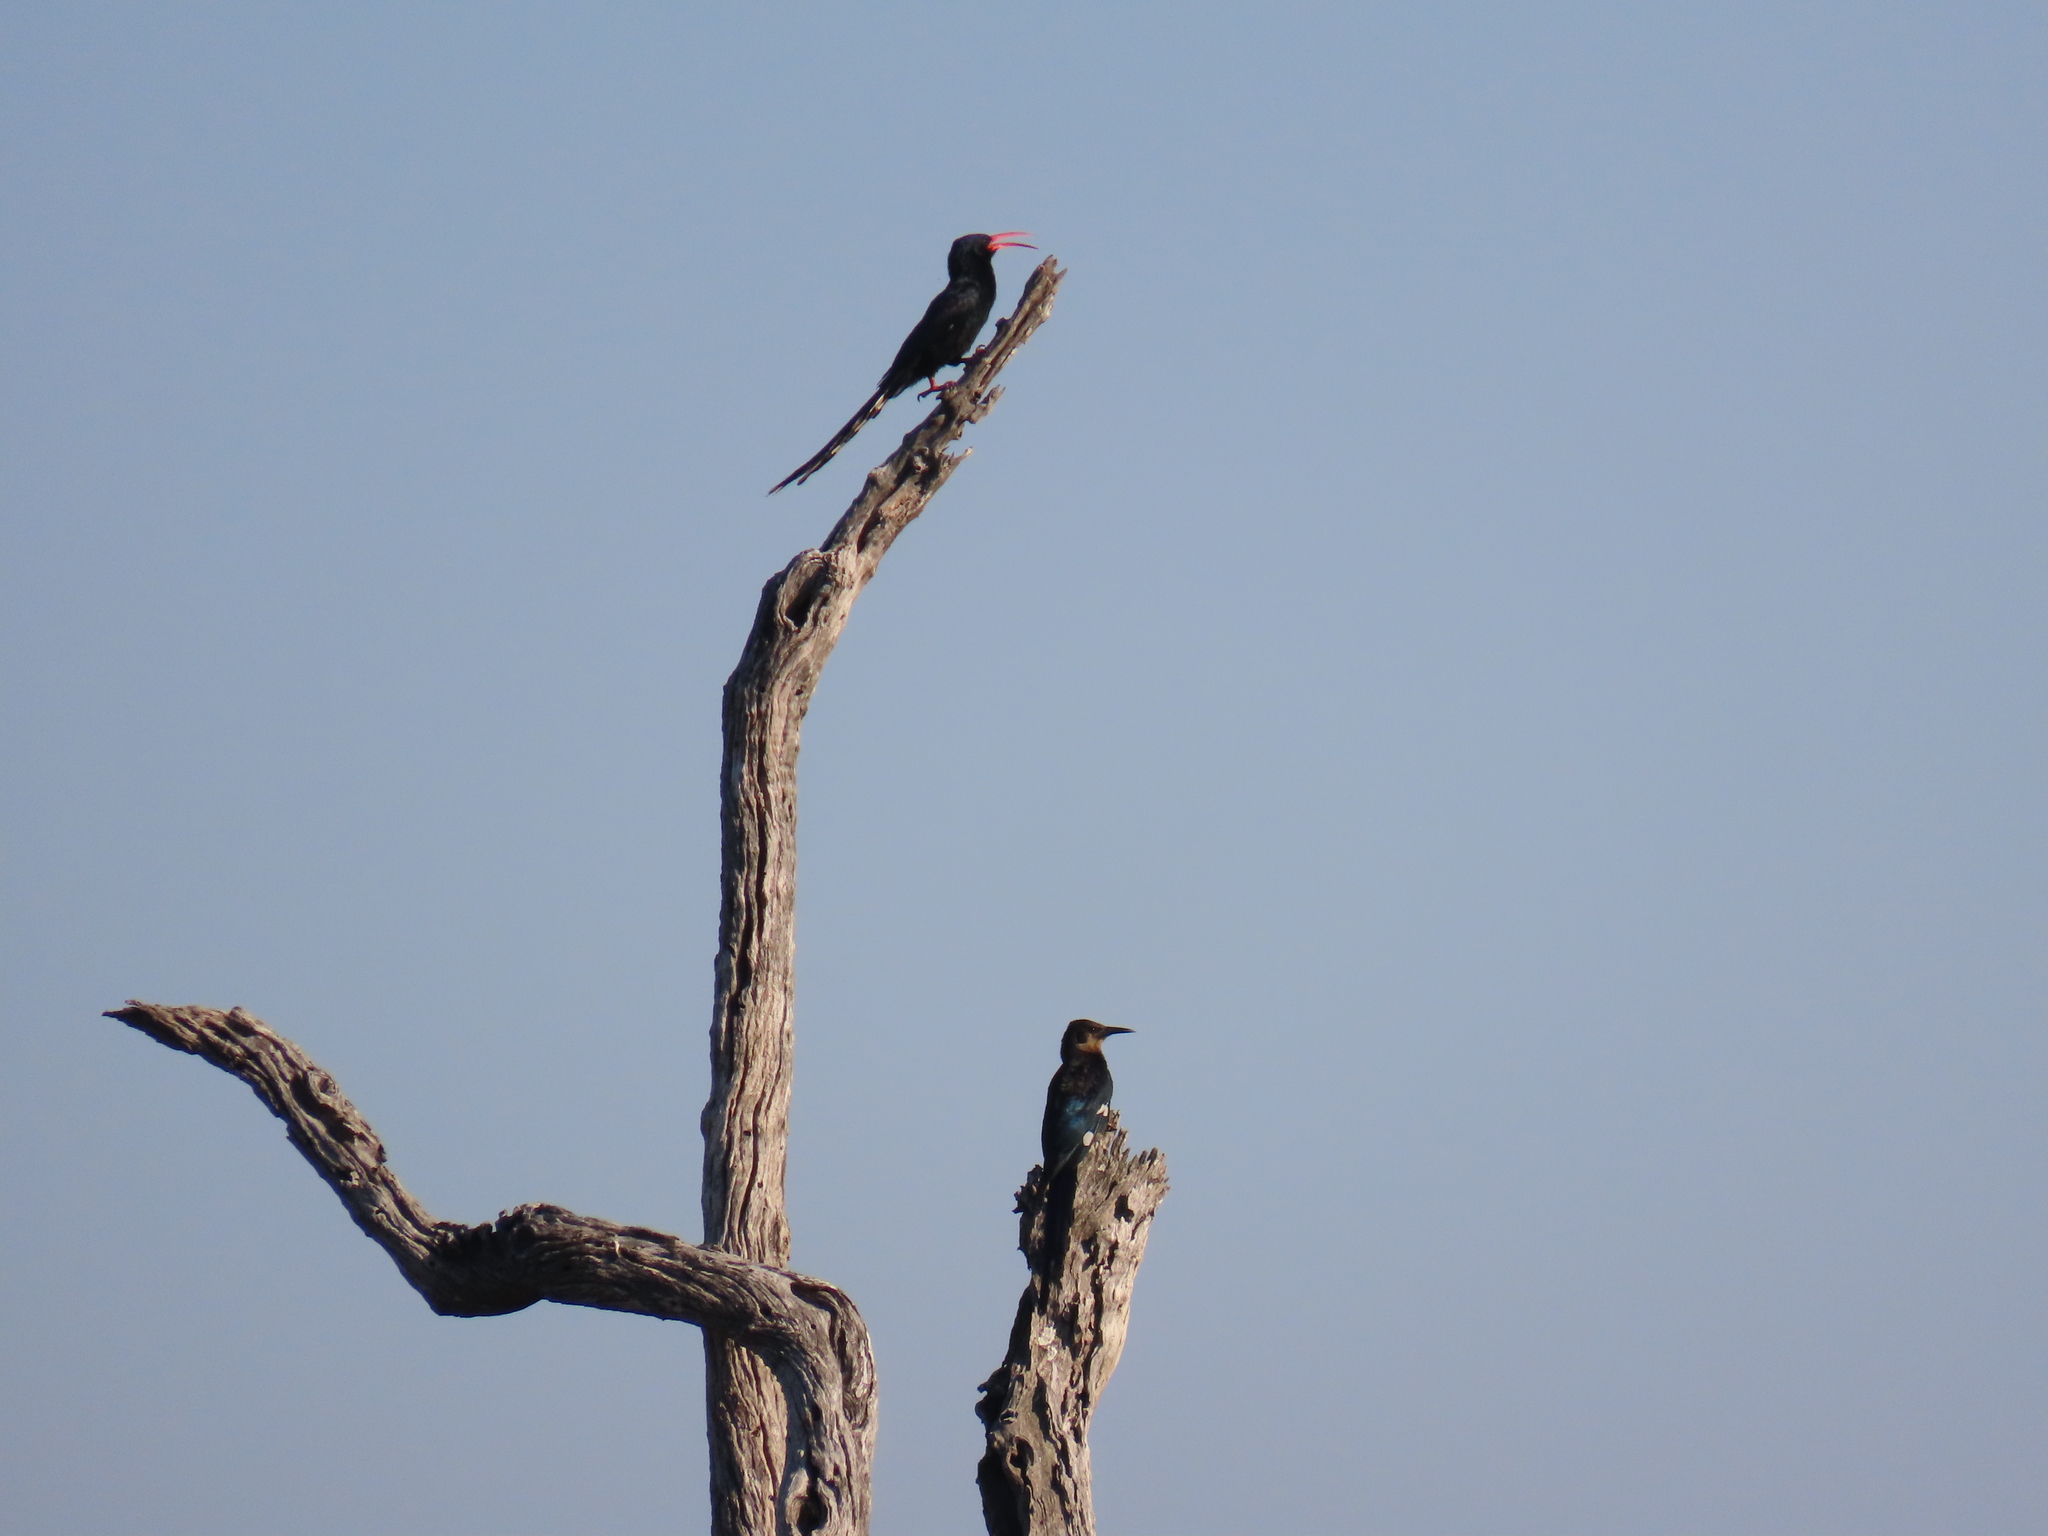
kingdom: Animalia
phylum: Chordata
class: Aves
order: Bucerotiformes
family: Phoeniculidae
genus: Phoeniculus
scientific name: Phoeniculus purpureus
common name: Green woodhoopoe
